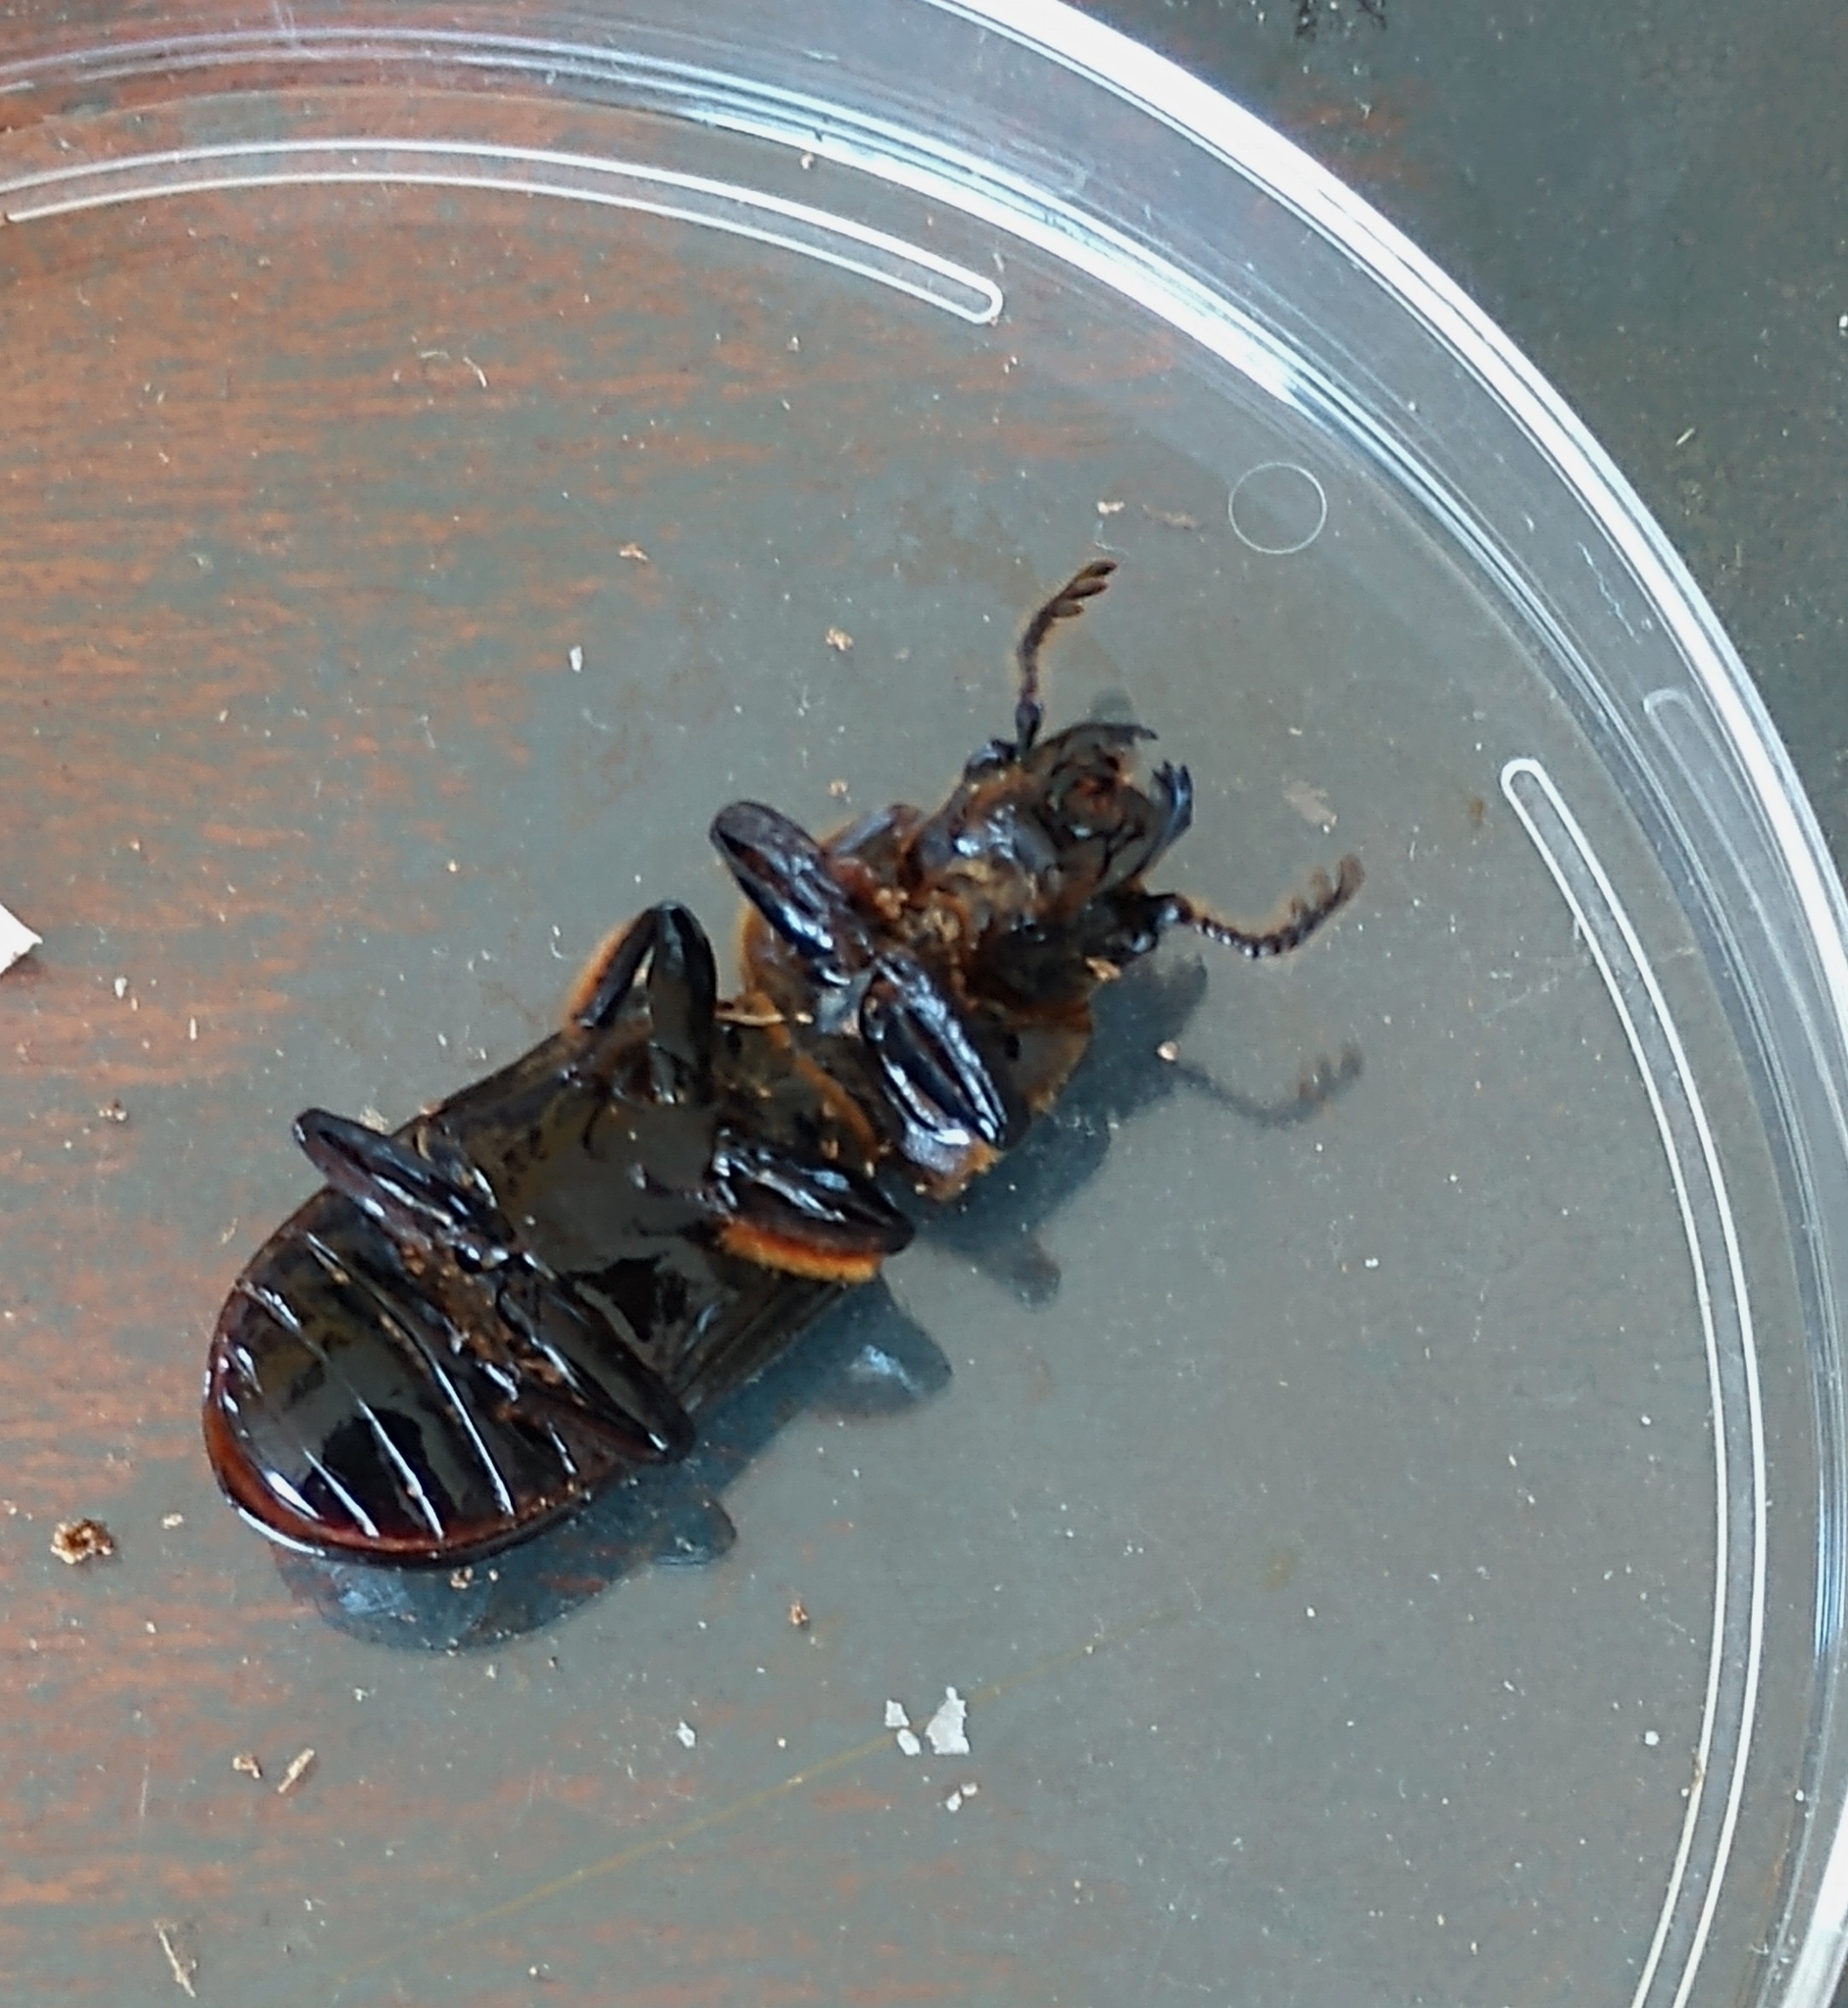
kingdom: Animalia
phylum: Arthropoda
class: Insecta
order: Coleoptera
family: Passalidae
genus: Odontotaenius
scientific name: Odontotaenius disjunctus
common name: Patent leather beetle
